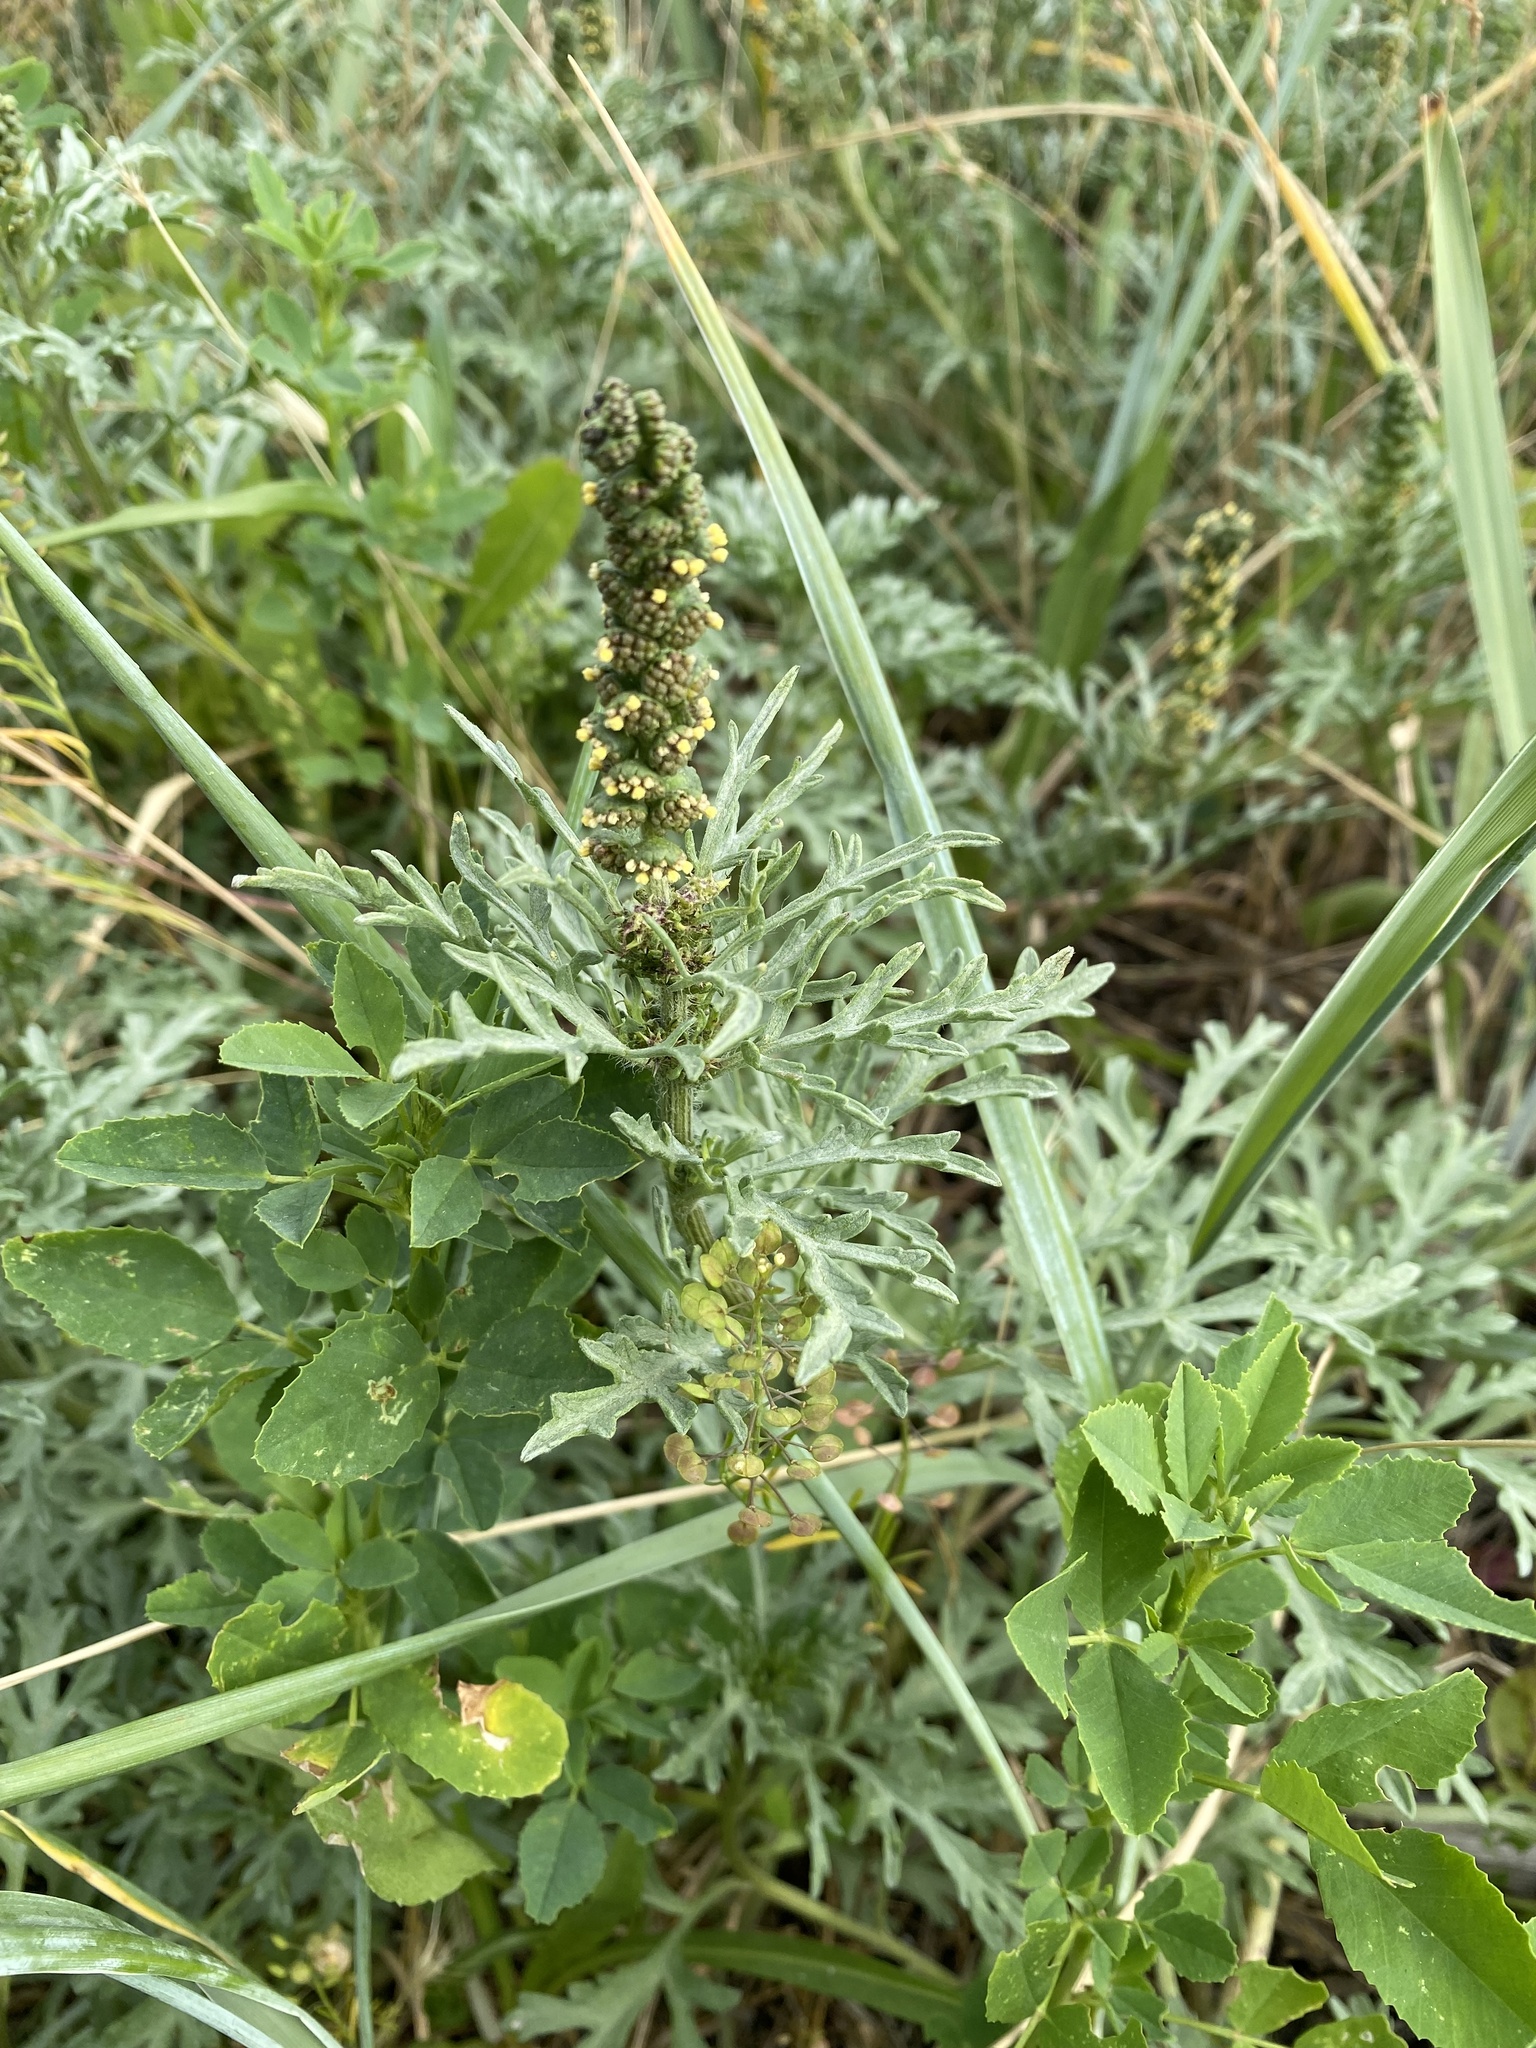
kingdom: Plantae
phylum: Tracheophyta
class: Magnoliopsida
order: Asterales
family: Asteraceae
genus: Ambrosia
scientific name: Ambrosia chamissonis
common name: Beachbur
